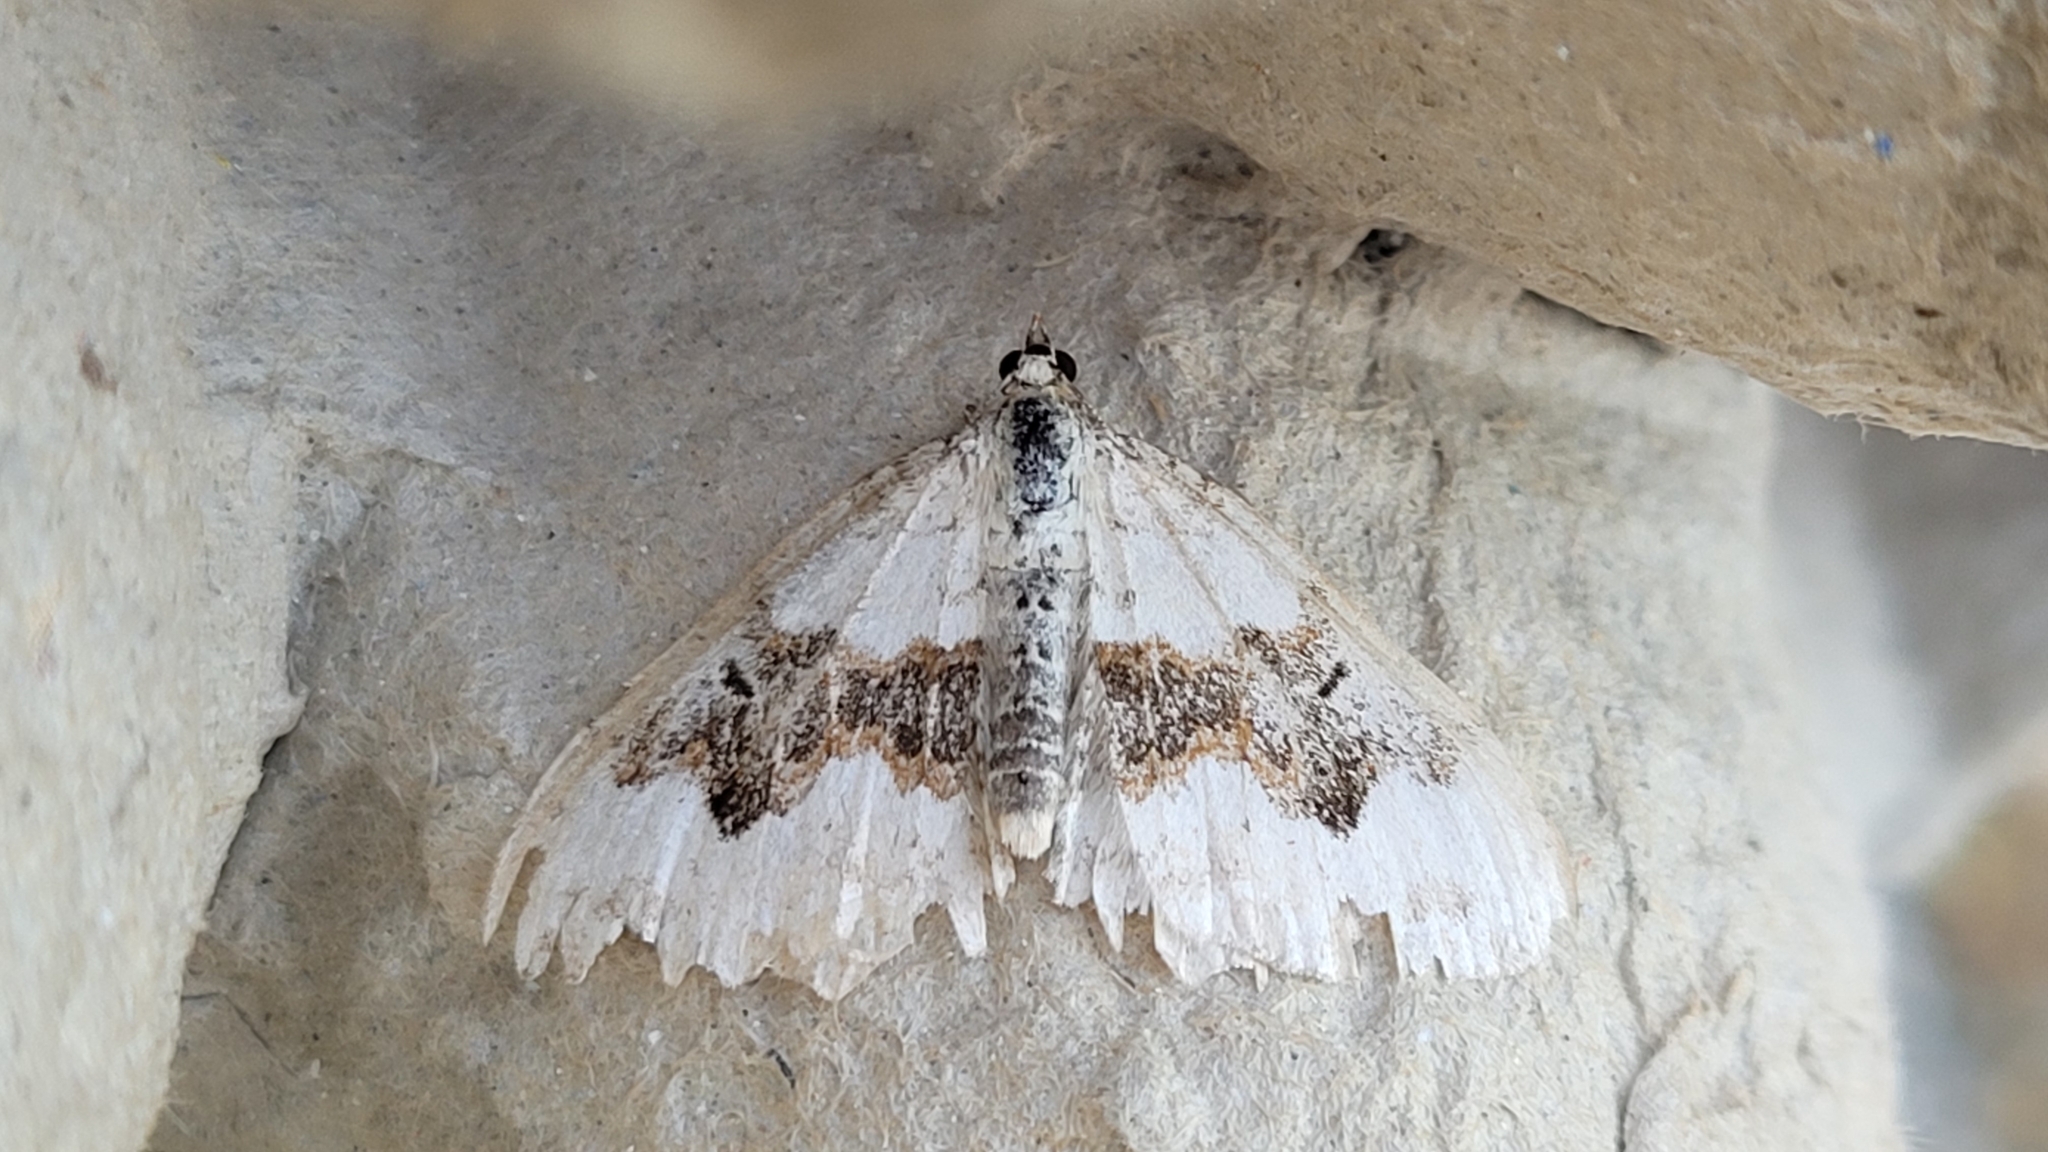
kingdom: Animalia
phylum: Arthropoda
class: Insecta
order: Lepidoptera
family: Geometridae
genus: Xanthorhoe
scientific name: Xanthorhoe montanata
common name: Silver-ground carpet
